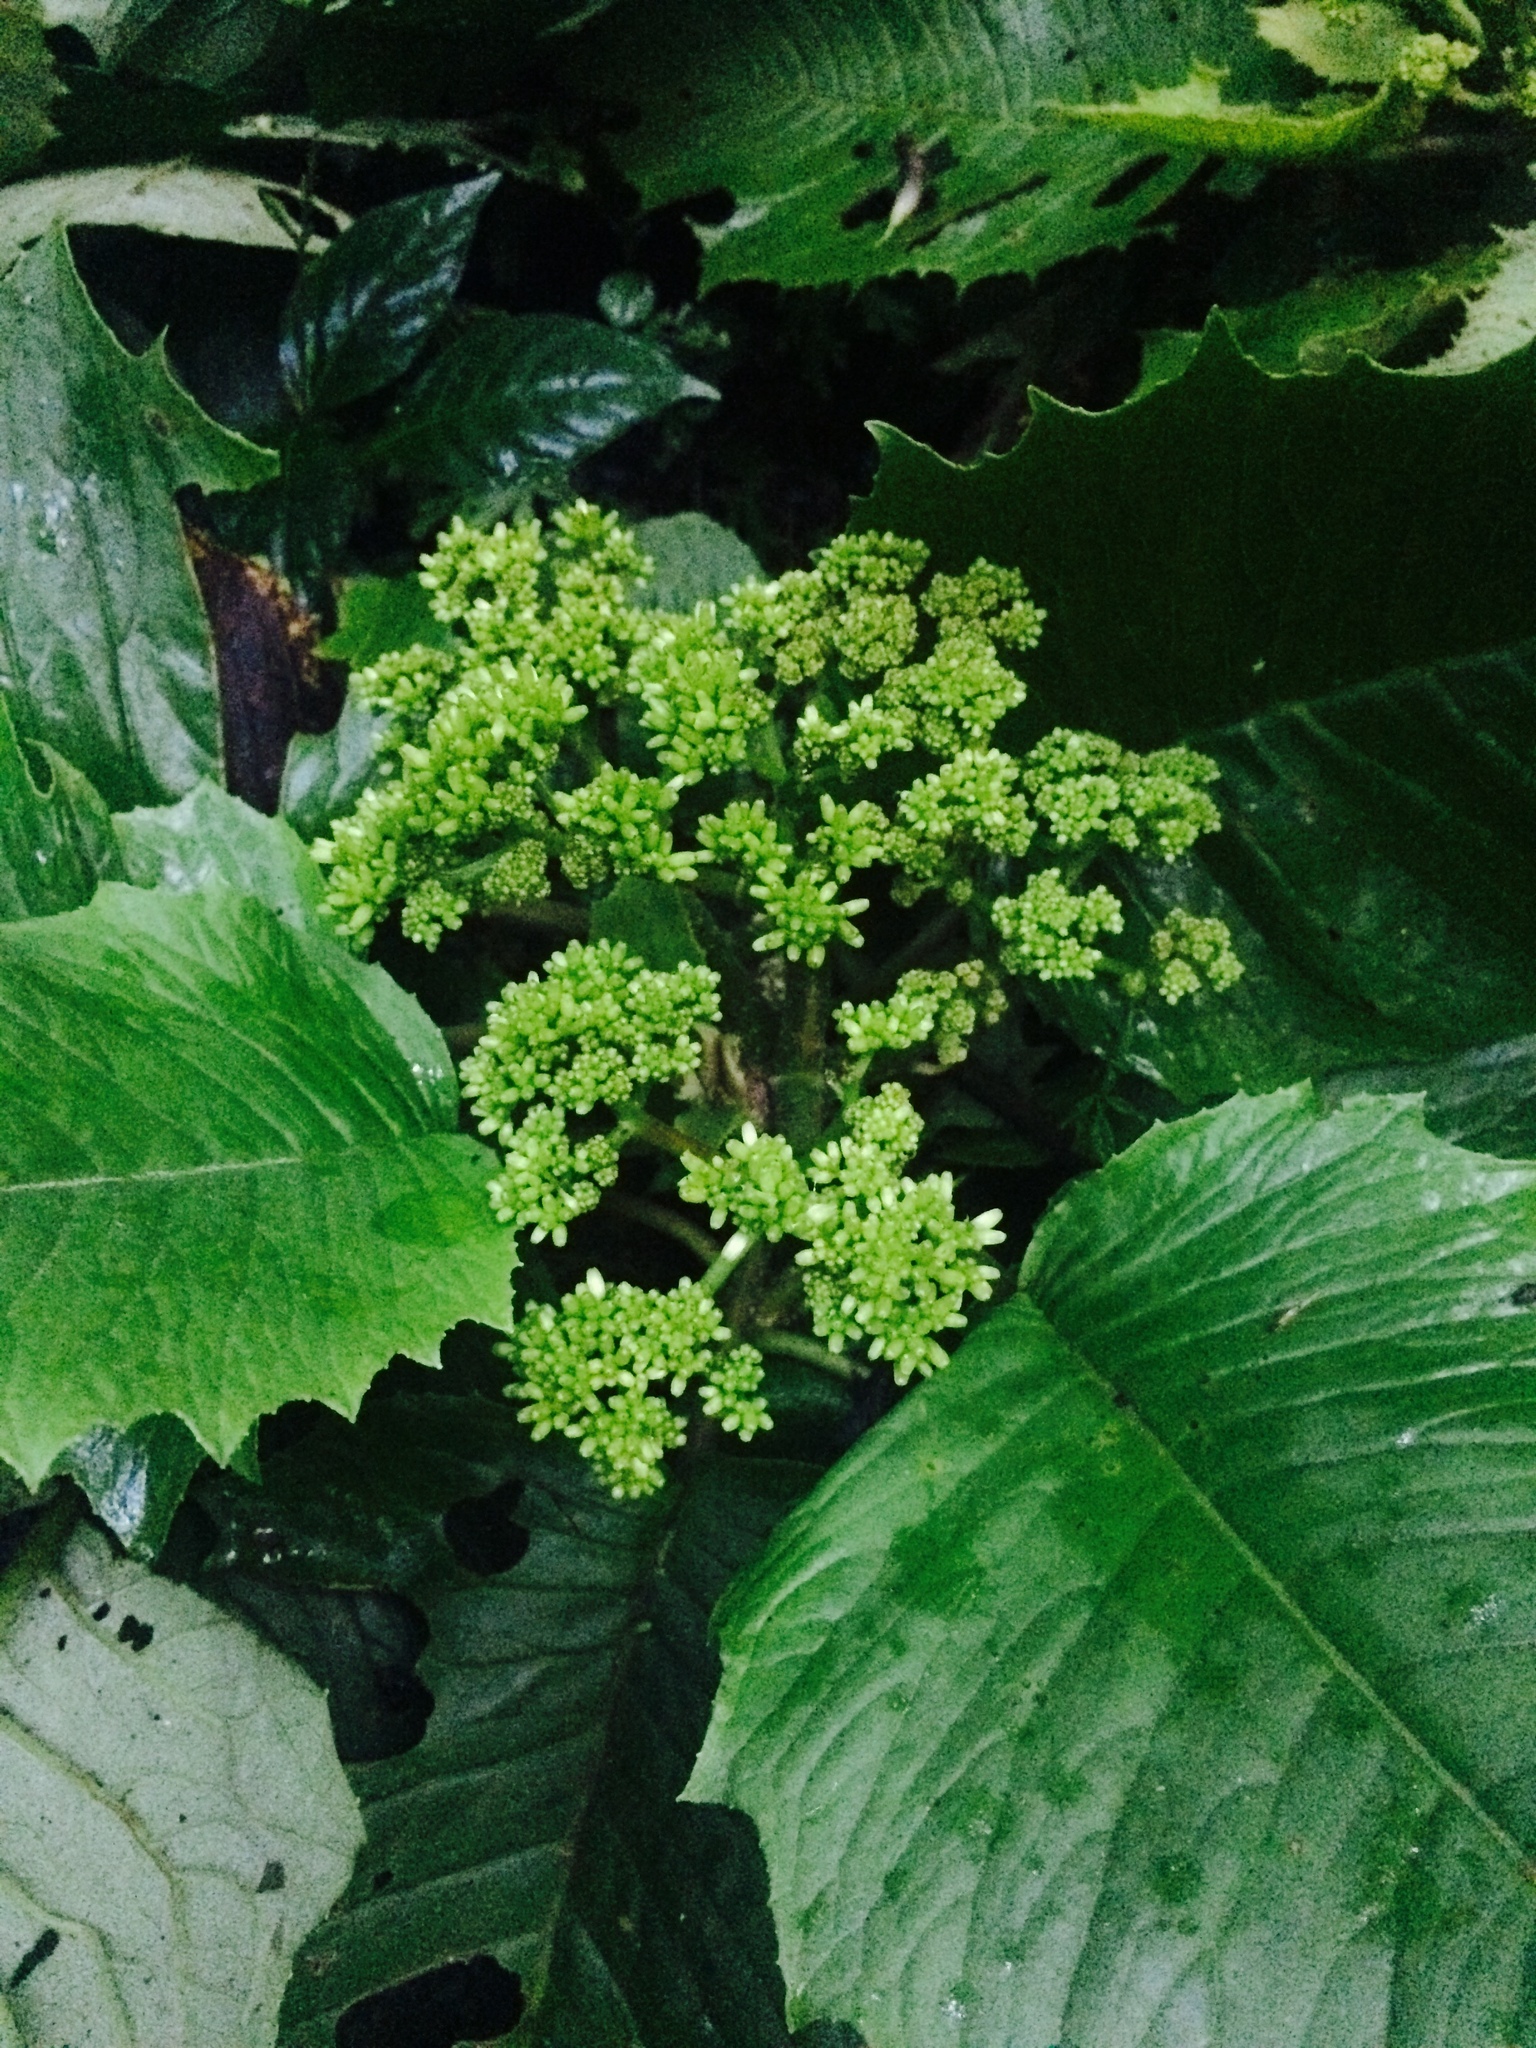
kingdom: Plantae
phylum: Tracheophyta
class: Magnoliopsida
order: Asterales
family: Asteraceae
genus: Telanthophora
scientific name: Telanthophora grandifolia
